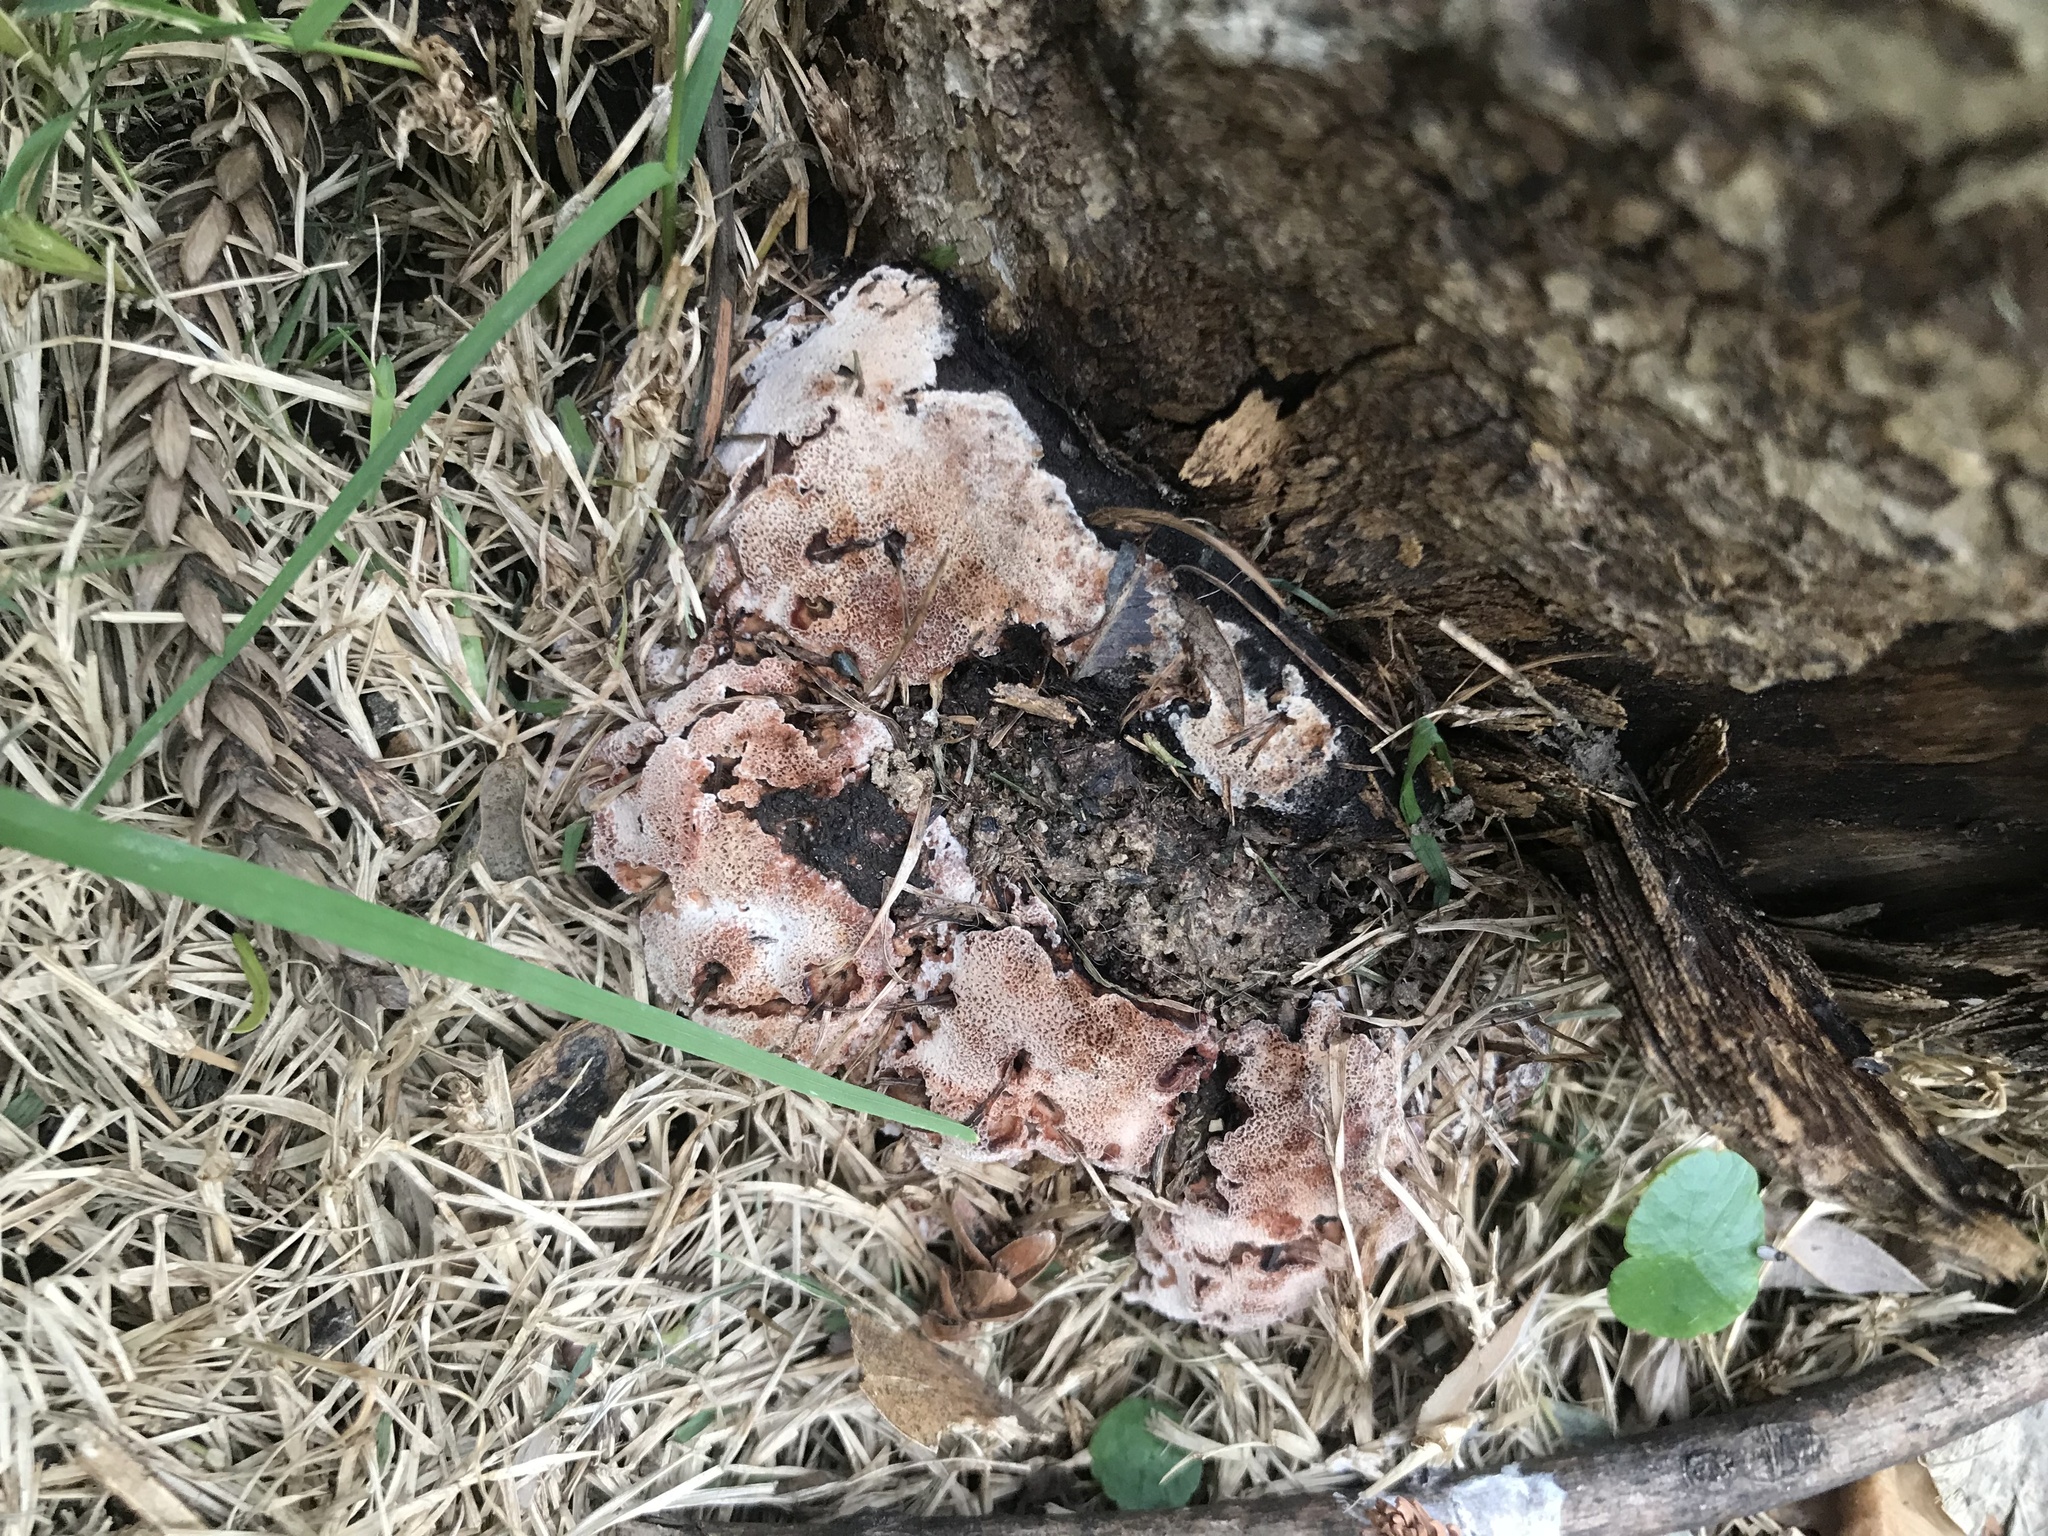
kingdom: Fungi
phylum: Basidiomycota
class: Agaricomycetes
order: Polyporales
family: Podoscyphaceae
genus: Abortiporus
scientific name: Abortiporus biennis
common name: Blushing rosette
